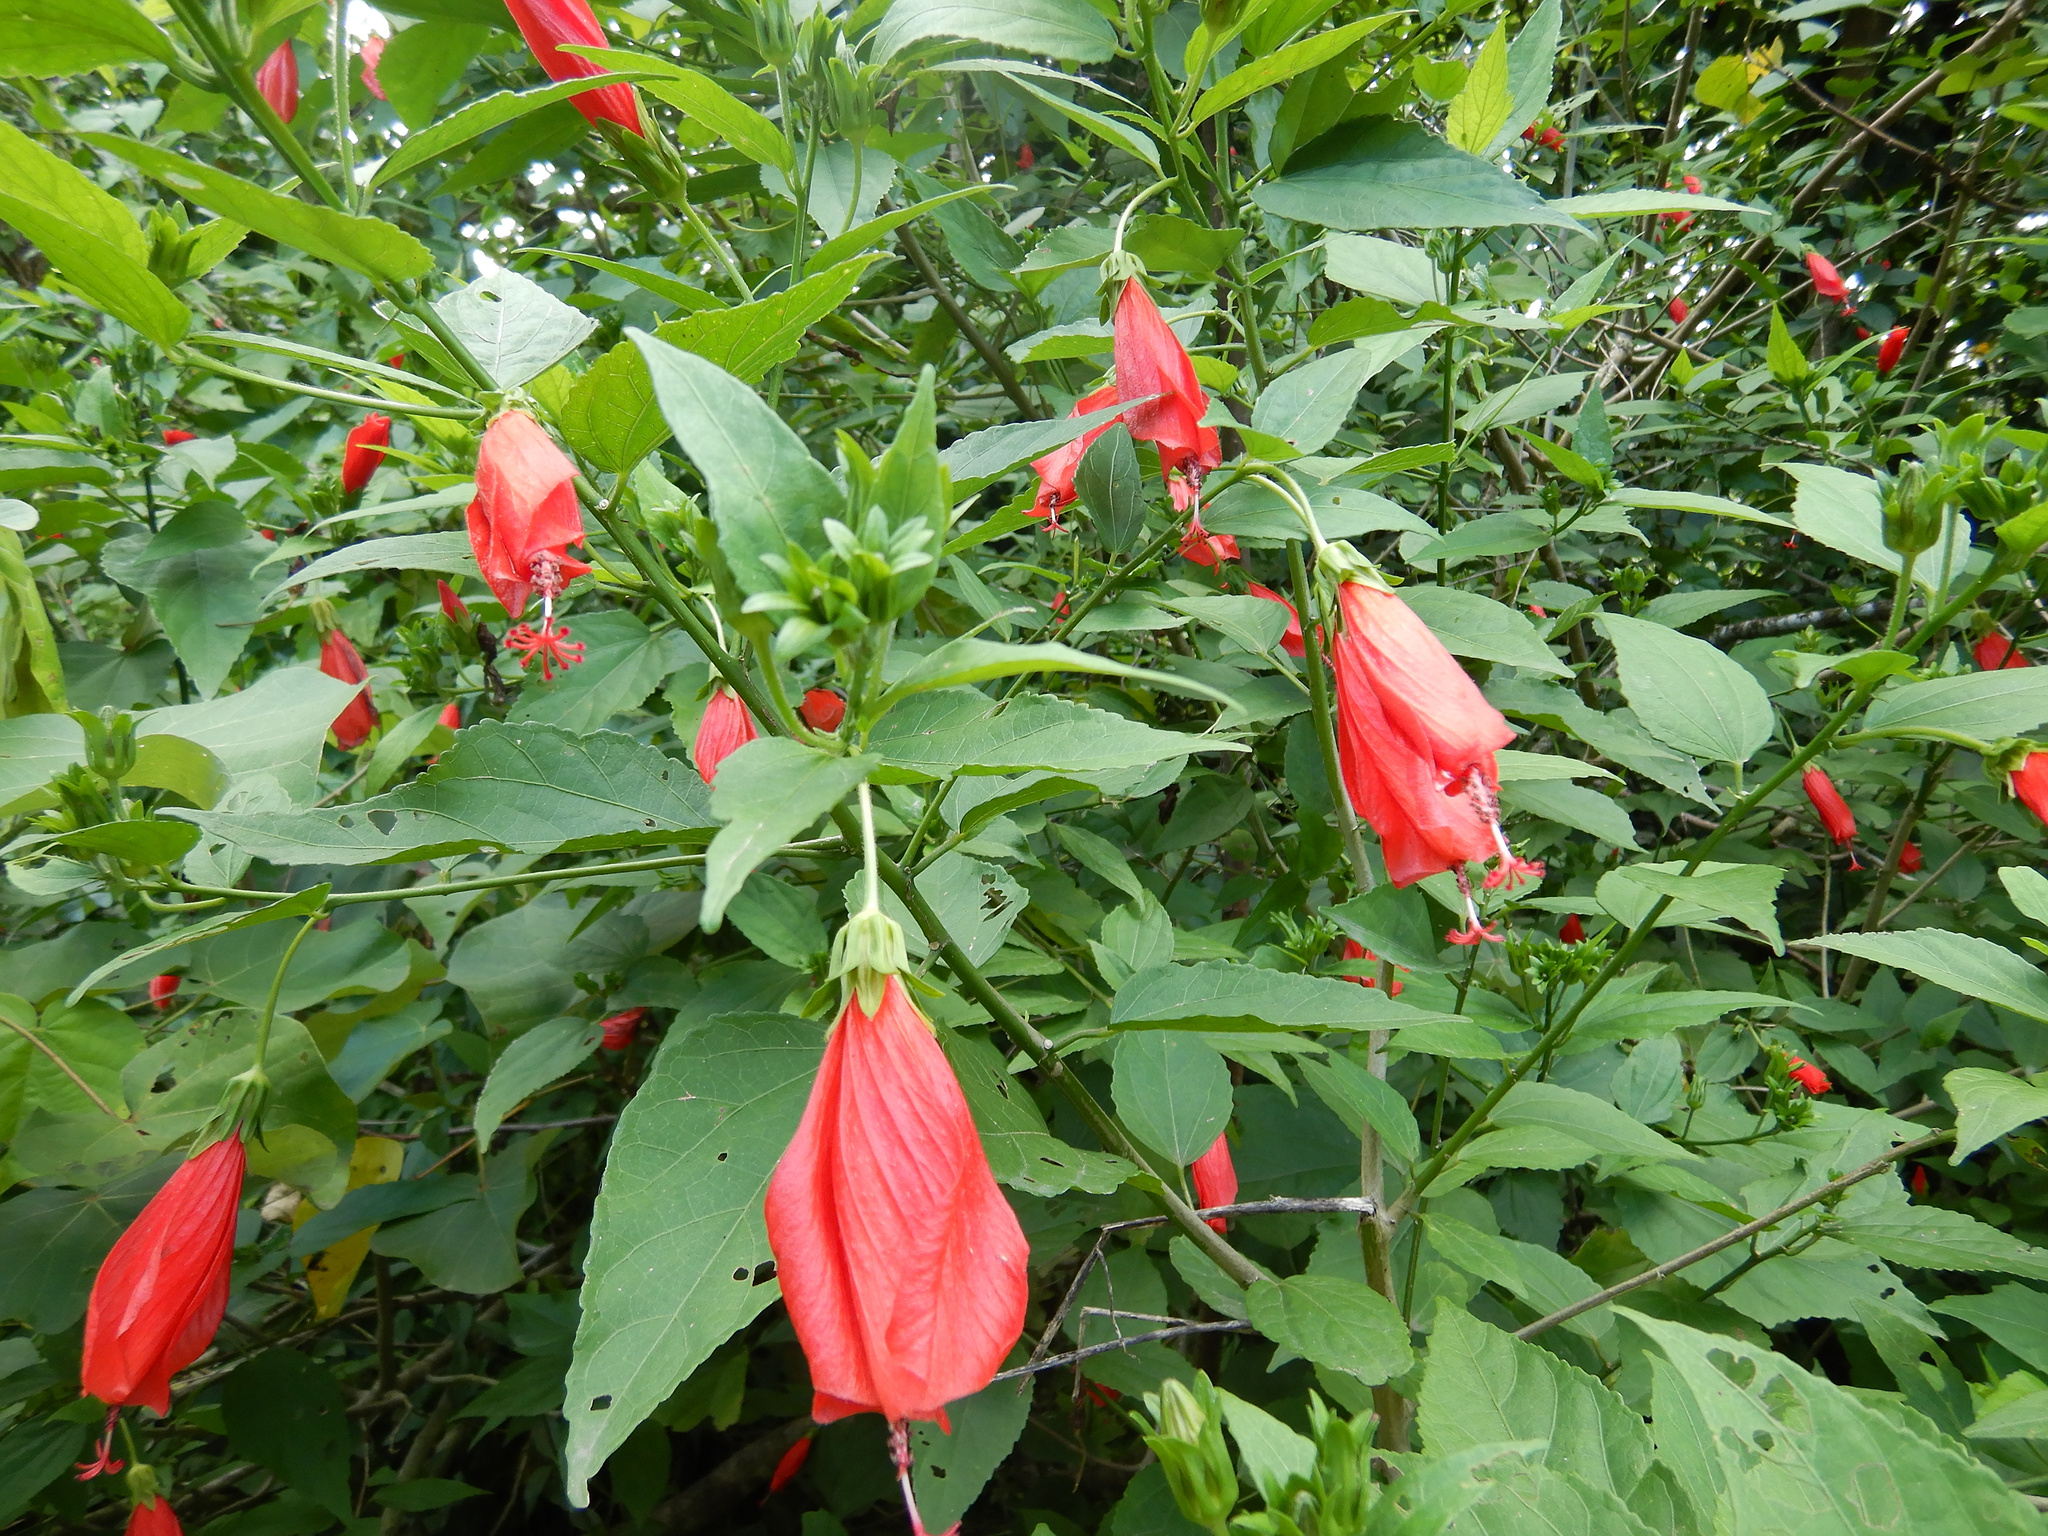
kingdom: Plantae
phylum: Tracheophyta
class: Magnoliopsida
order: Malvales
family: Malvaceae
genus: Malvaviscus
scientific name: Malvaviscus penduliflorus
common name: Mazapan
